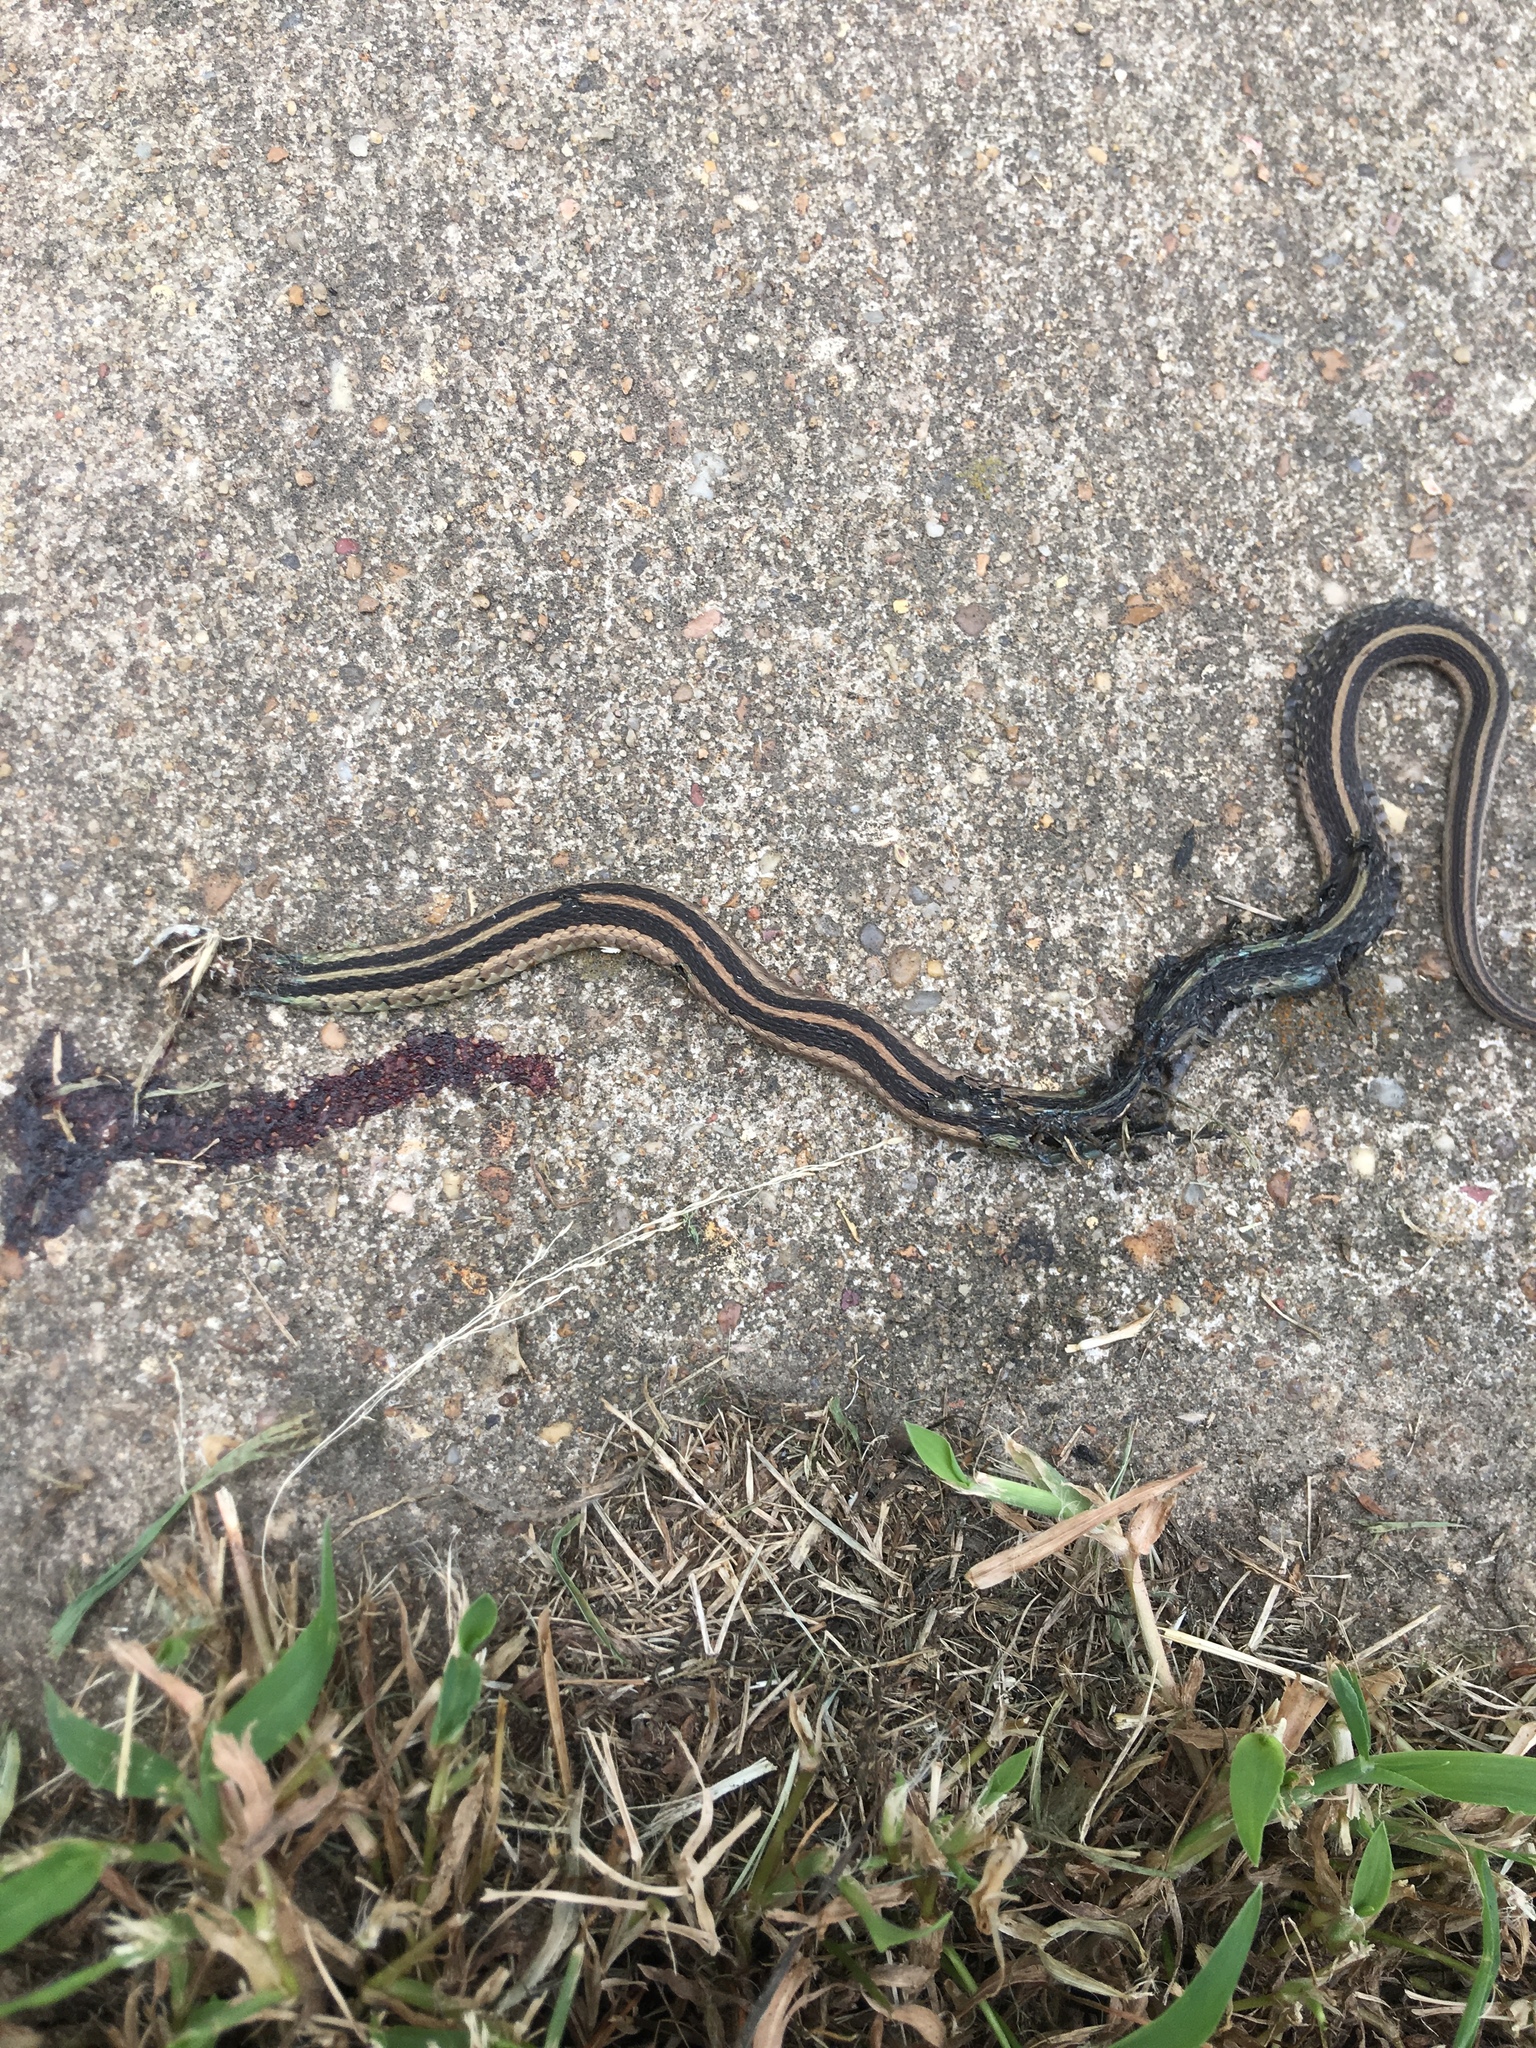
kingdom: Animalia
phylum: Chordata
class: Squamata
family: Colubridae
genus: Thamnophis
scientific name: Thamnophis sirtalis
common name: Common garter snake
